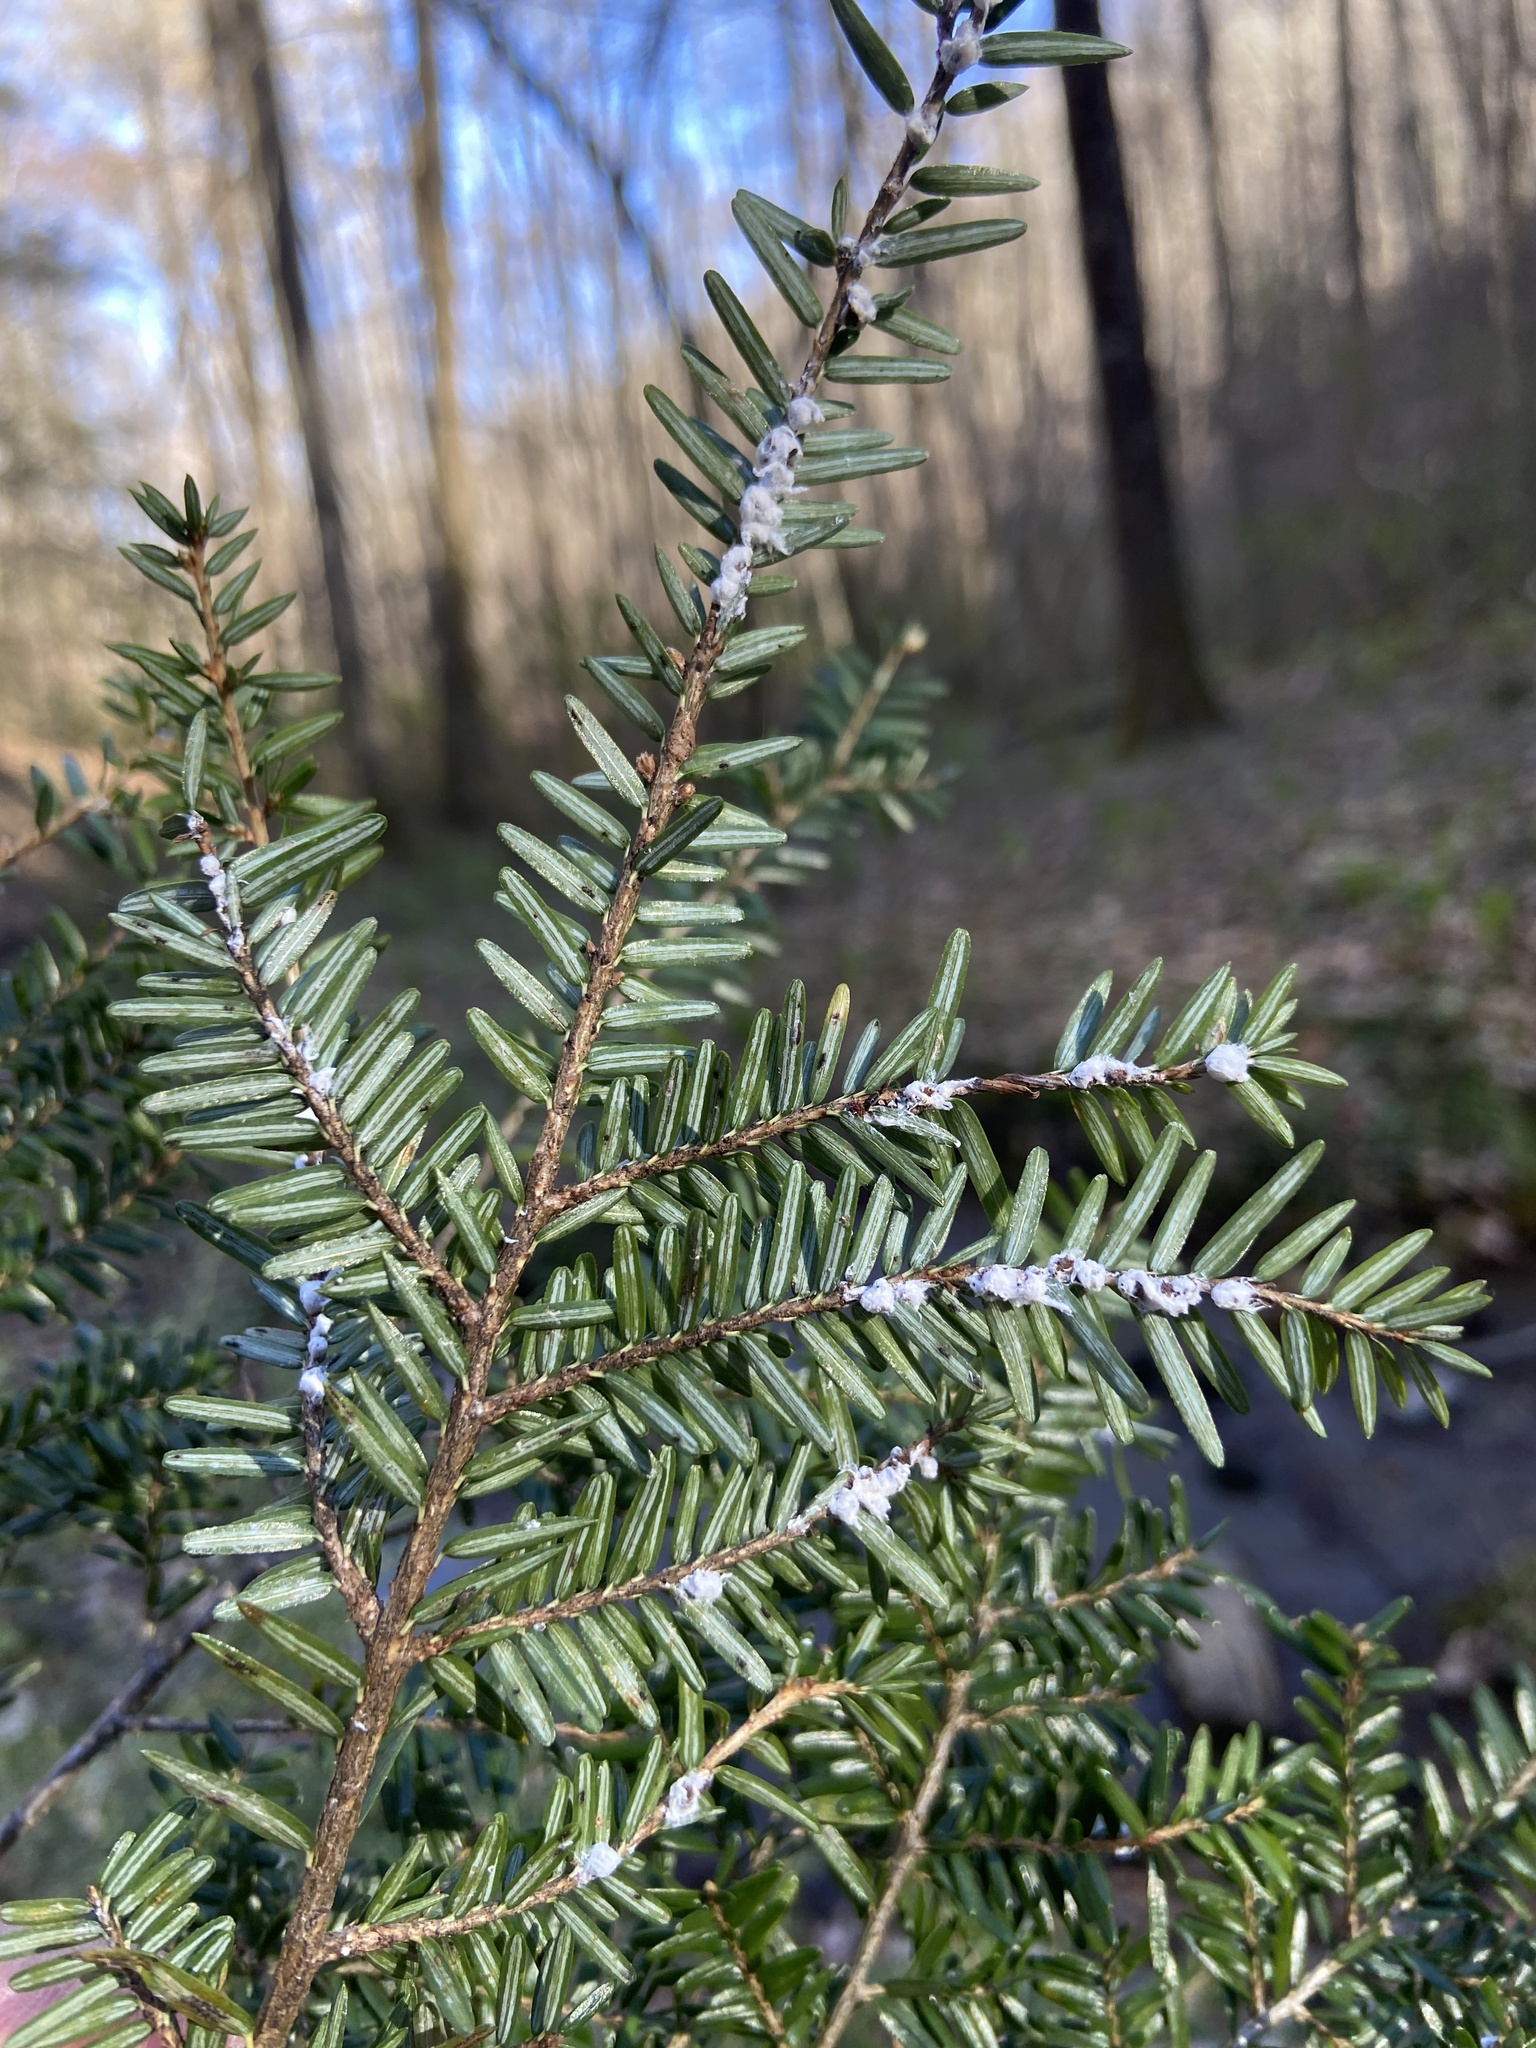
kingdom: Animalia
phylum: Arthropoda
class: Insecta
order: Hemiptera
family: Adelgidae
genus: Adelges
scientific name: Adelges tsugae
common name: Hemlock woolly adelgid
